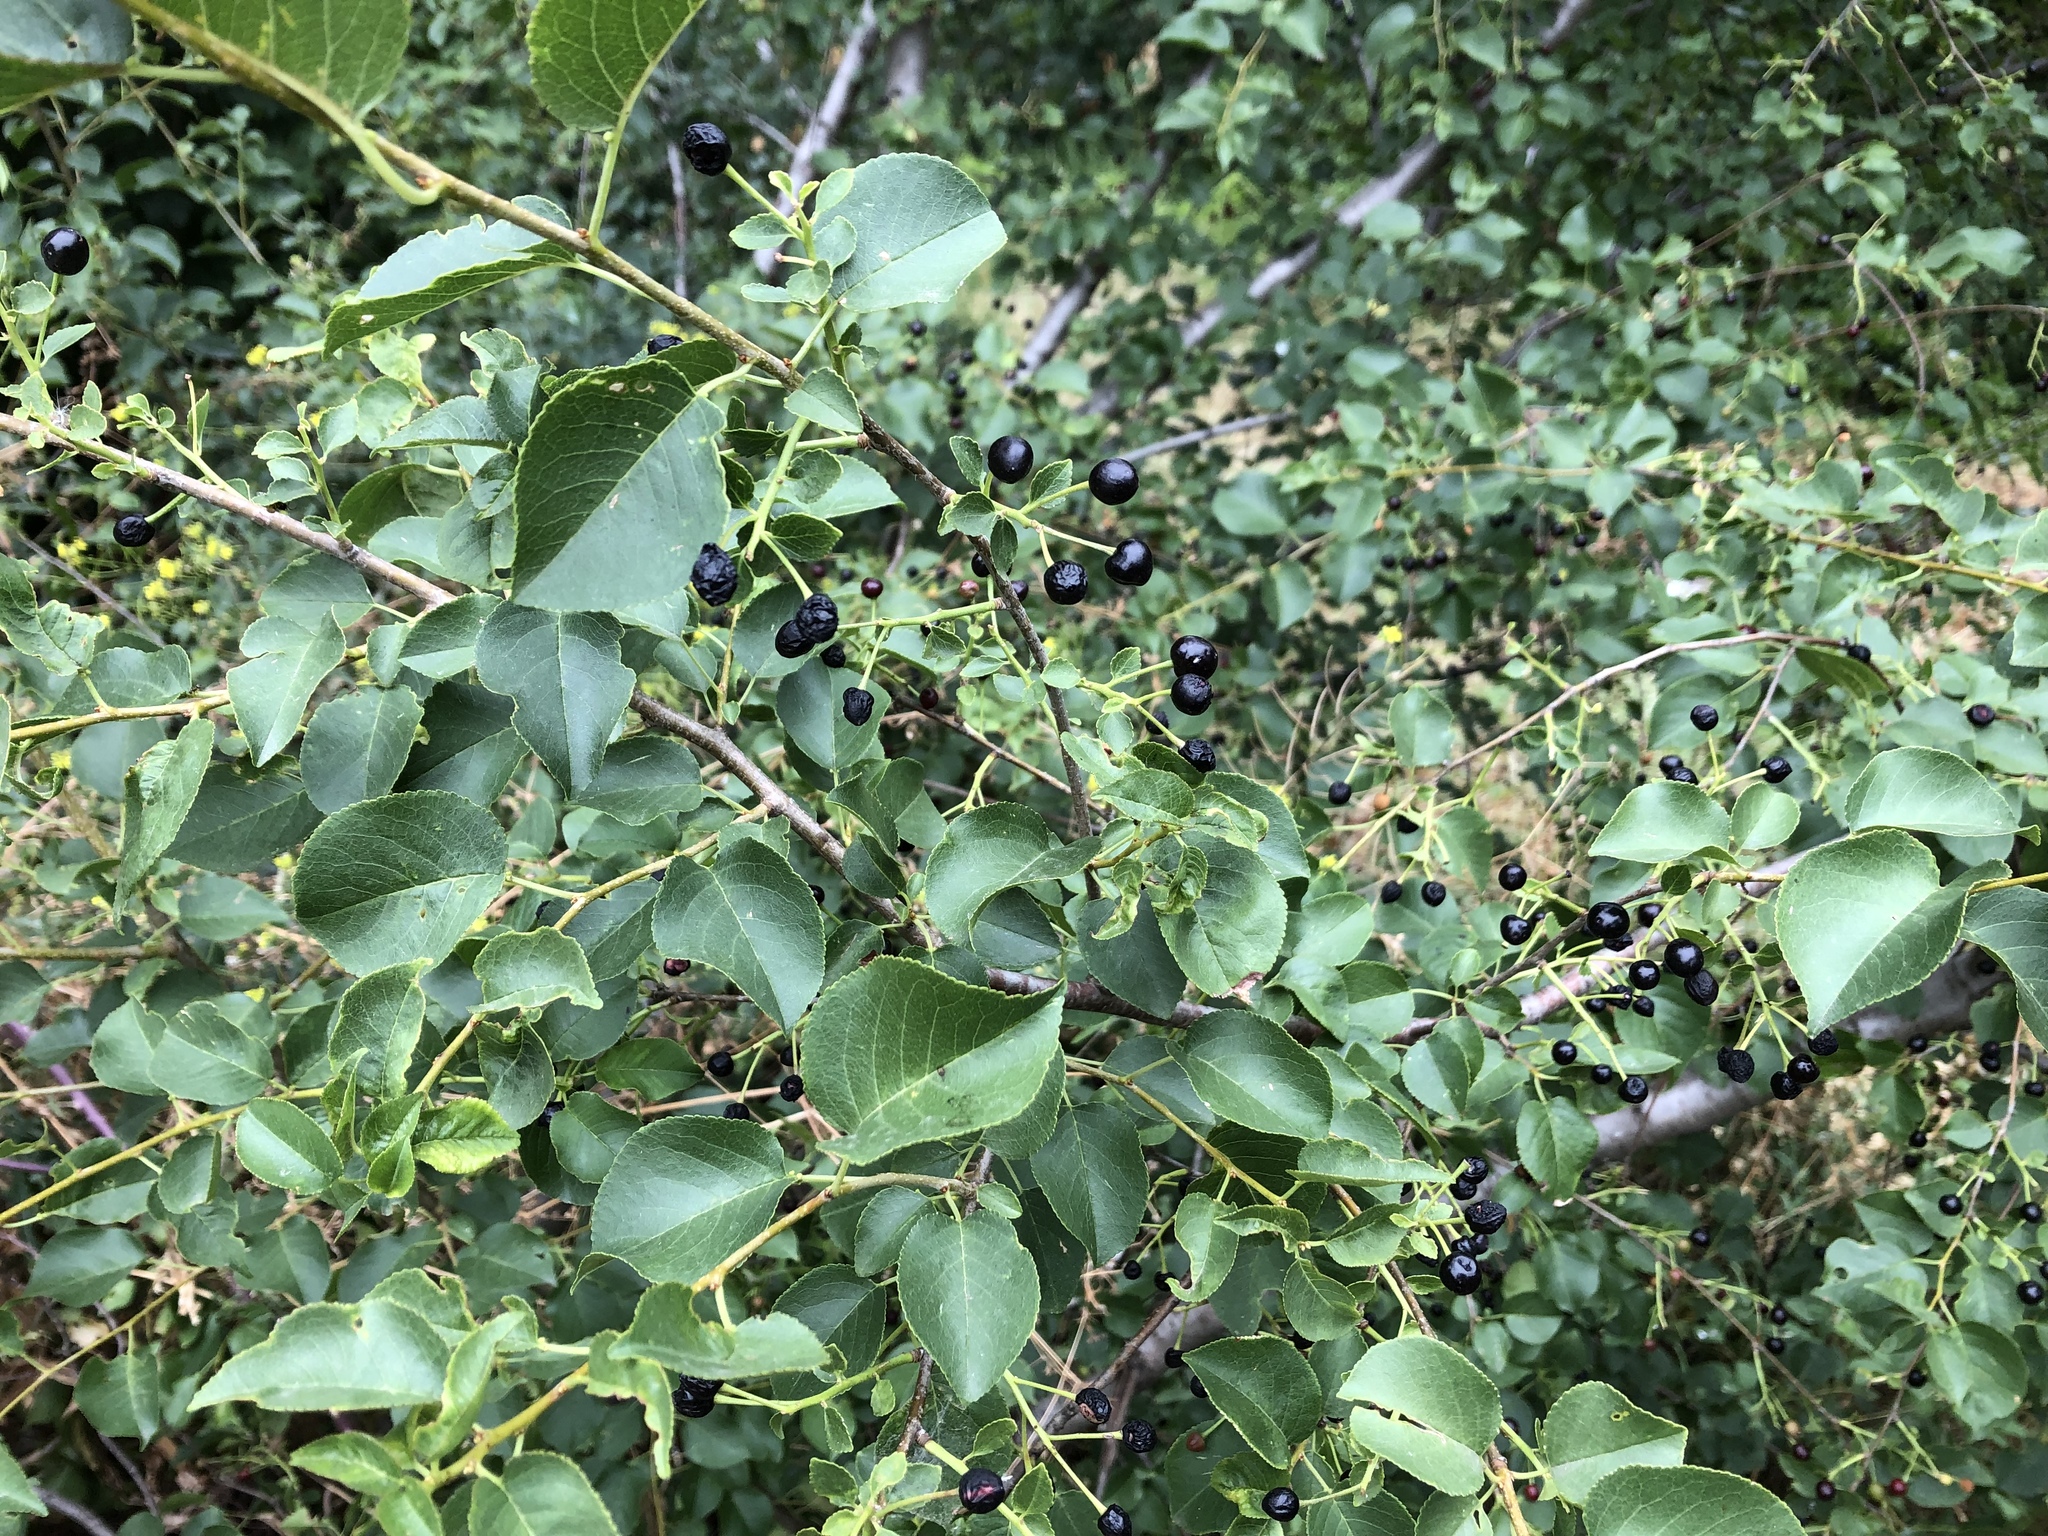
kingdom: Plantae
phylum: Tracheophyta
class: Magnoliopsida
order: Rosales
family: Rosaceae
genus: Prunus
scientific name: Prunus mahaleb
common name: Mahaleb cherry
